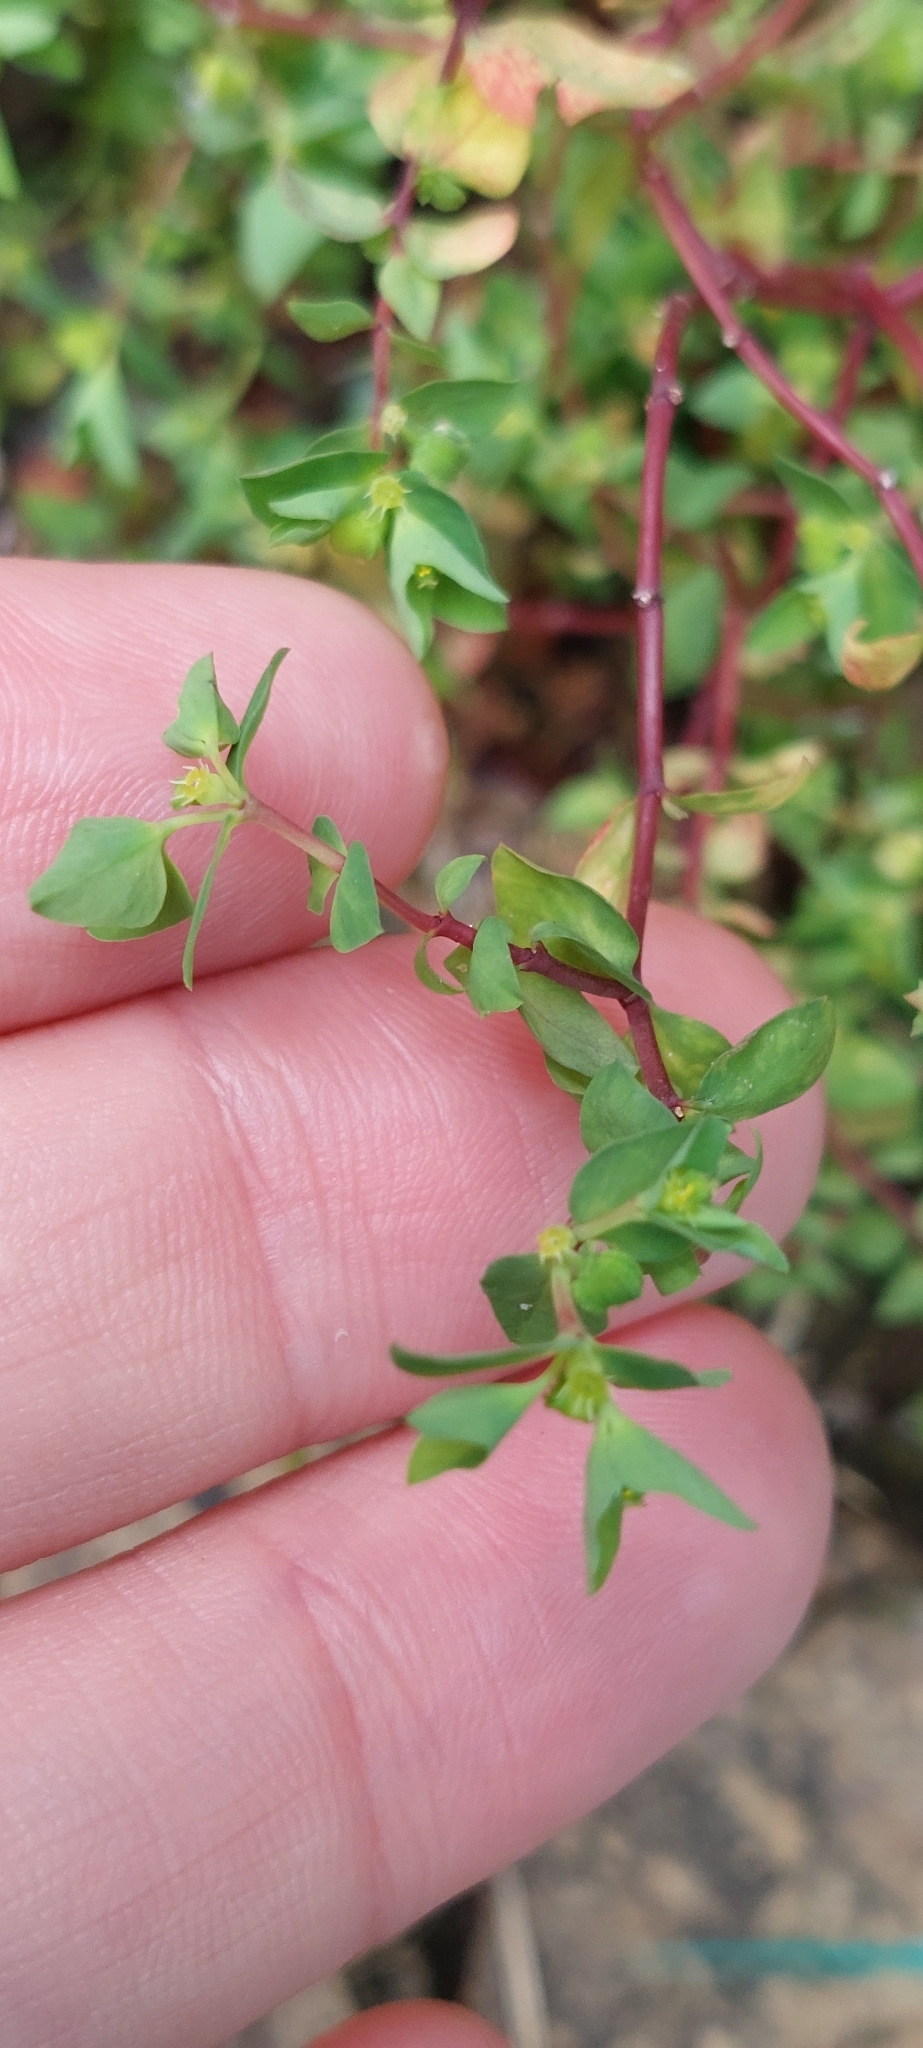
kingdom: Plantae
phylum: Tracheophyta
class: Magnoliopsida
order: Malpighiales
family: Euphorbiaceae
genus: Euphorbia
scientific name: Euphorbia peplus
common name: Petty spurge
